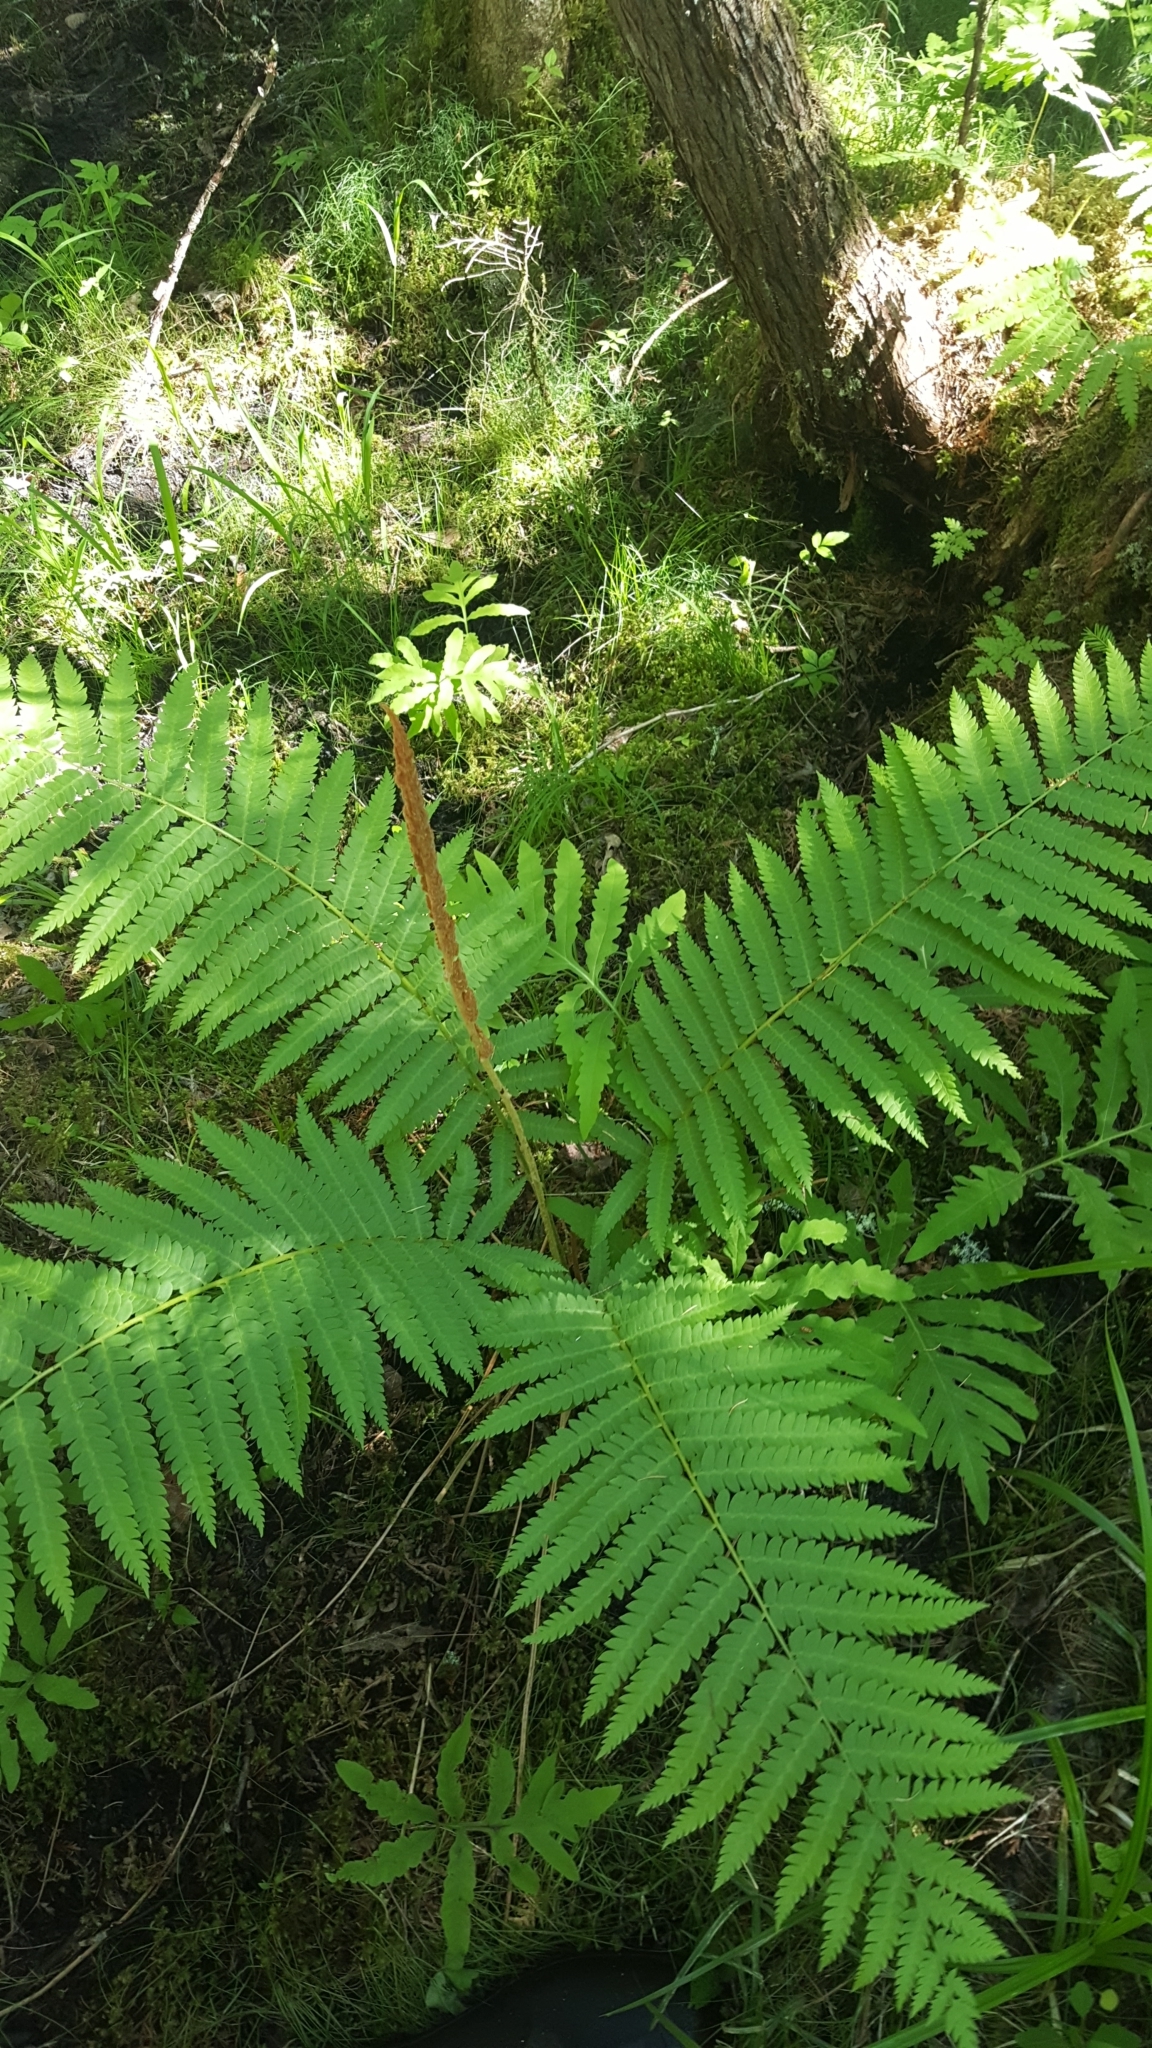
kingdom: Plantae
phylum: Tracheophyta
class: Polypodiopsida
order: Osmundales
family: Osmundaceae
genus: Osmundastrum
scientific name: Osmundastrum cinnamomeum
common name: Cinnamon fern
